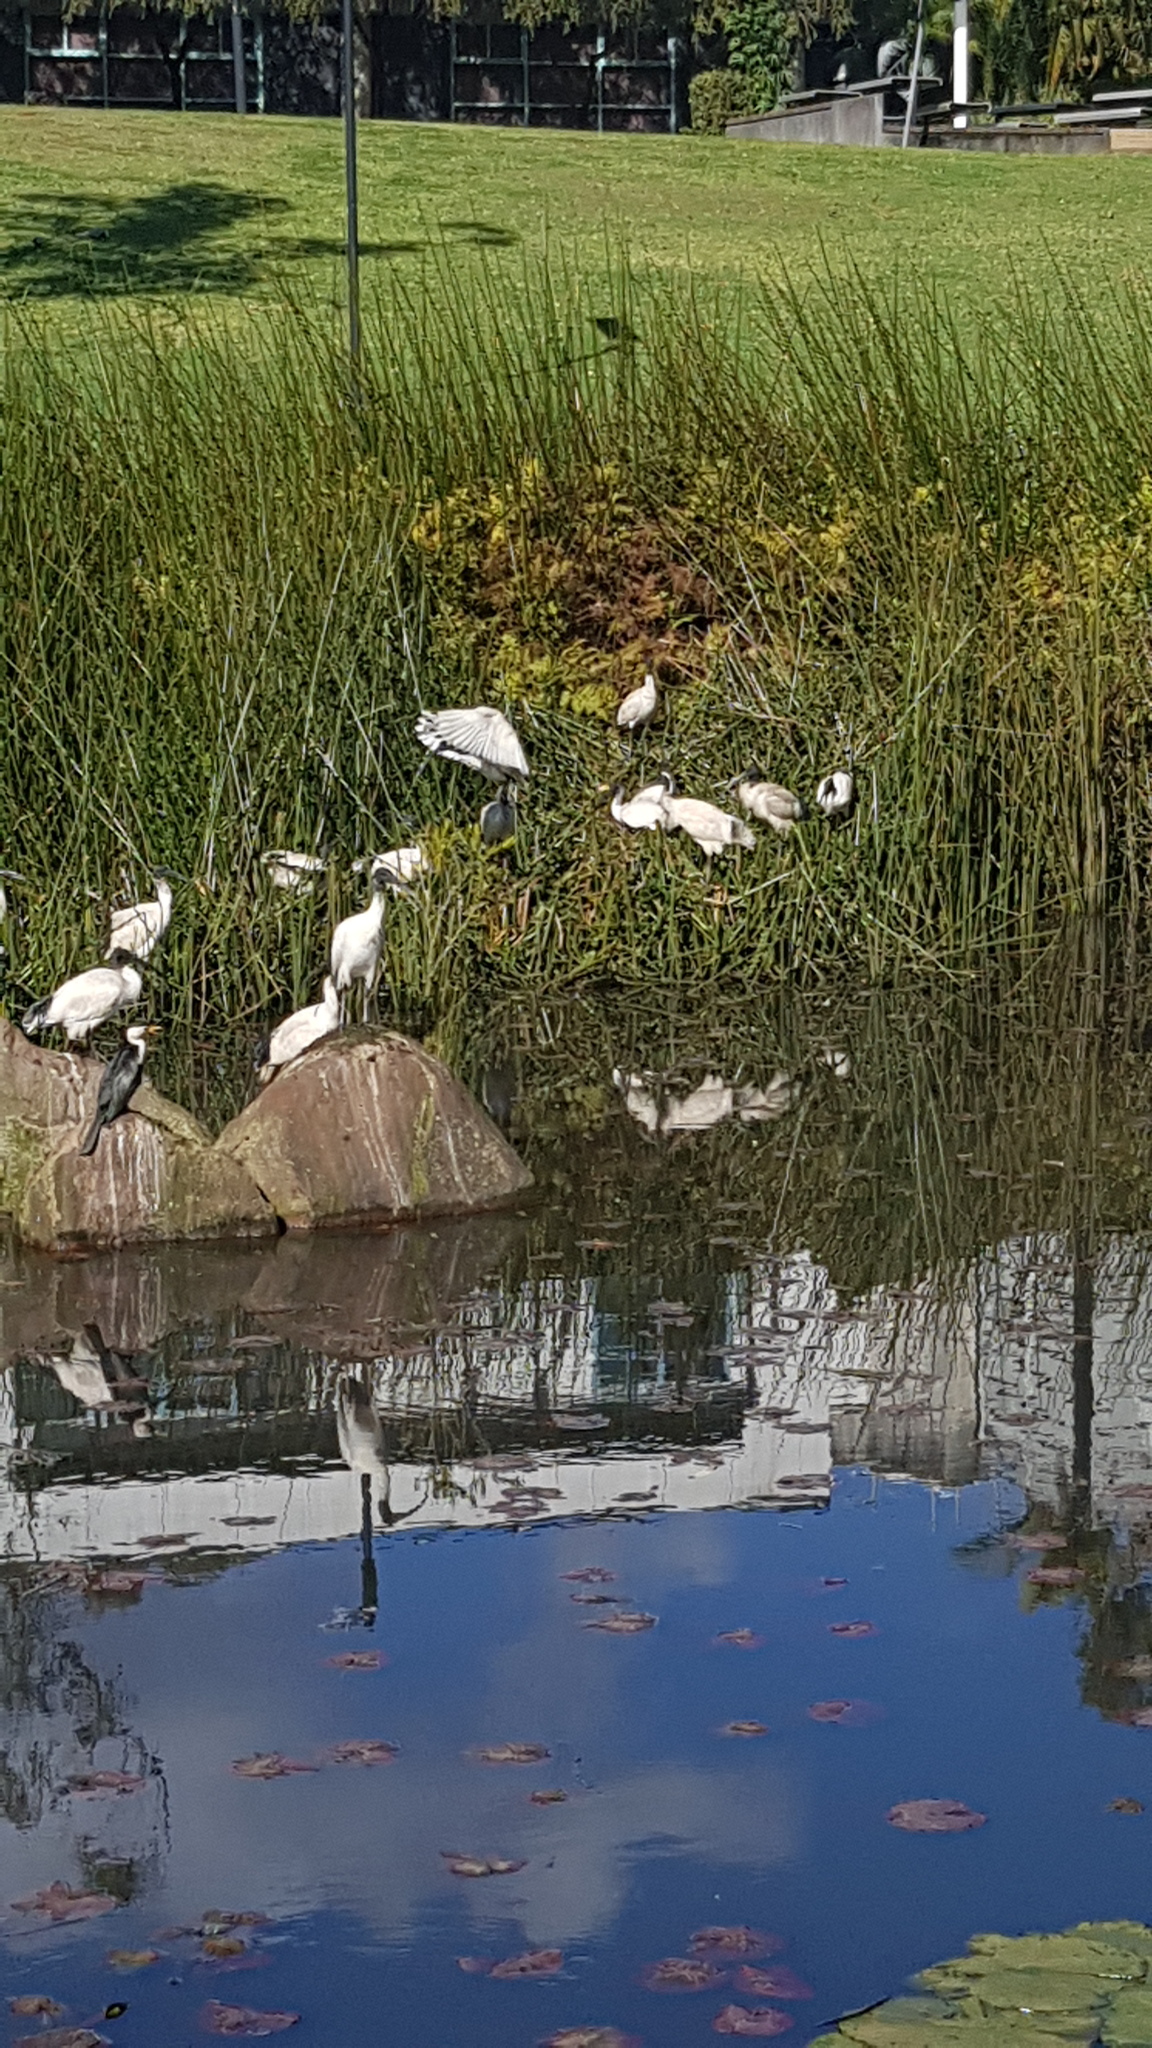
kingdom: Animalia
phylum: Chordata
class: Aves
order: Pelecaniformes
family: Threskiornithidae
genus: Threskiornis
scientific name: Threskiornis molucca
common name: Australian white ibis
